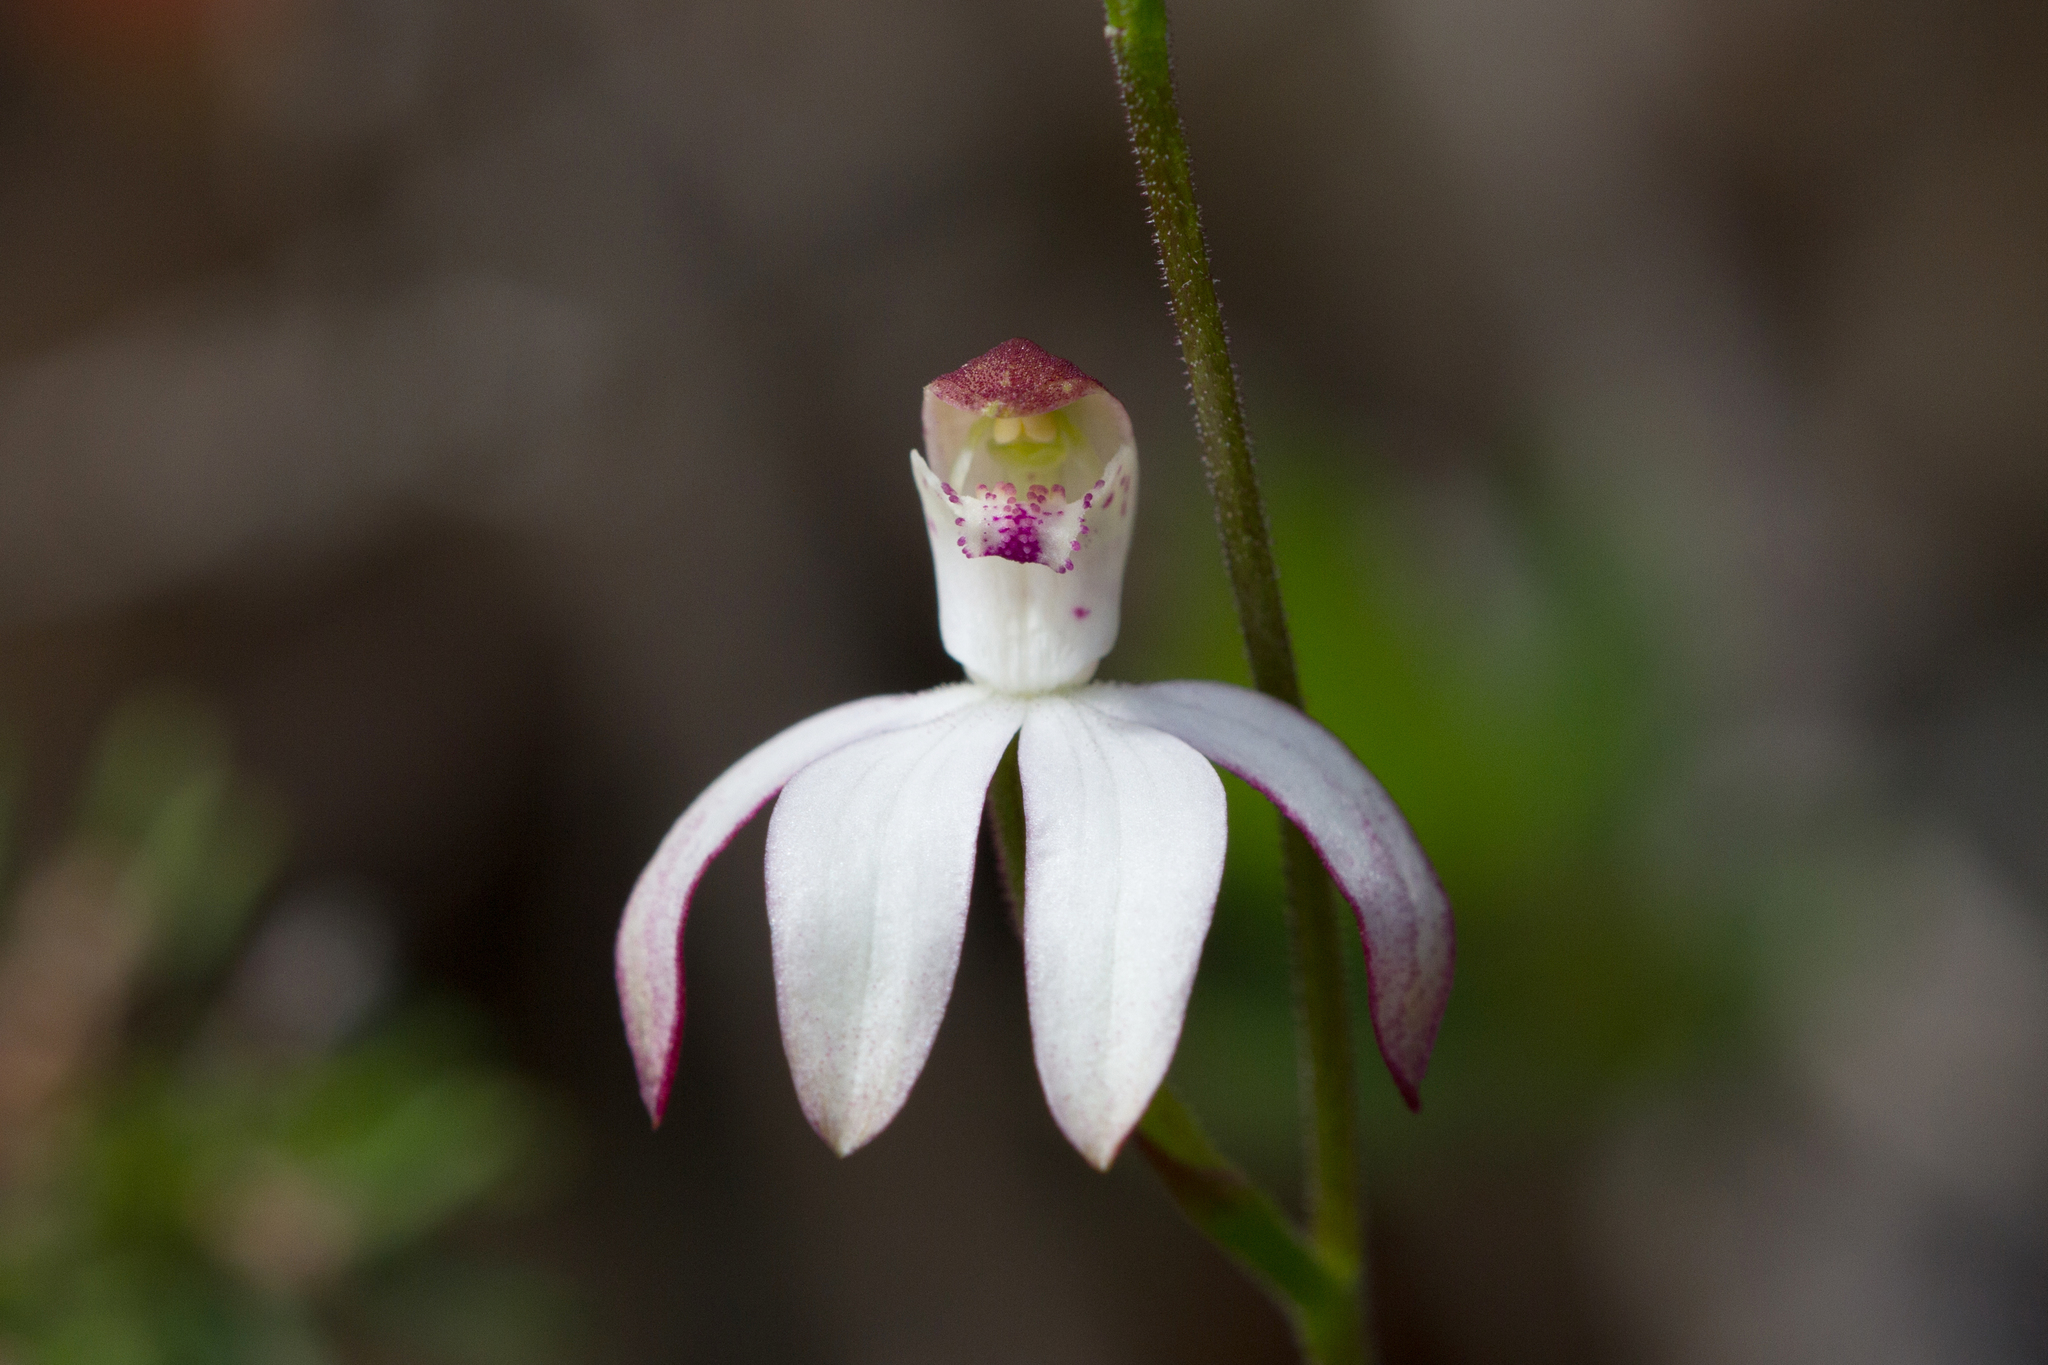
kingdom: Plantae
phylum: Tracheophyta
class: Liliopsida
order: Asparagales
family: Orchidaceae
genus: Caladenia
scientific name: Caladenia moschata
